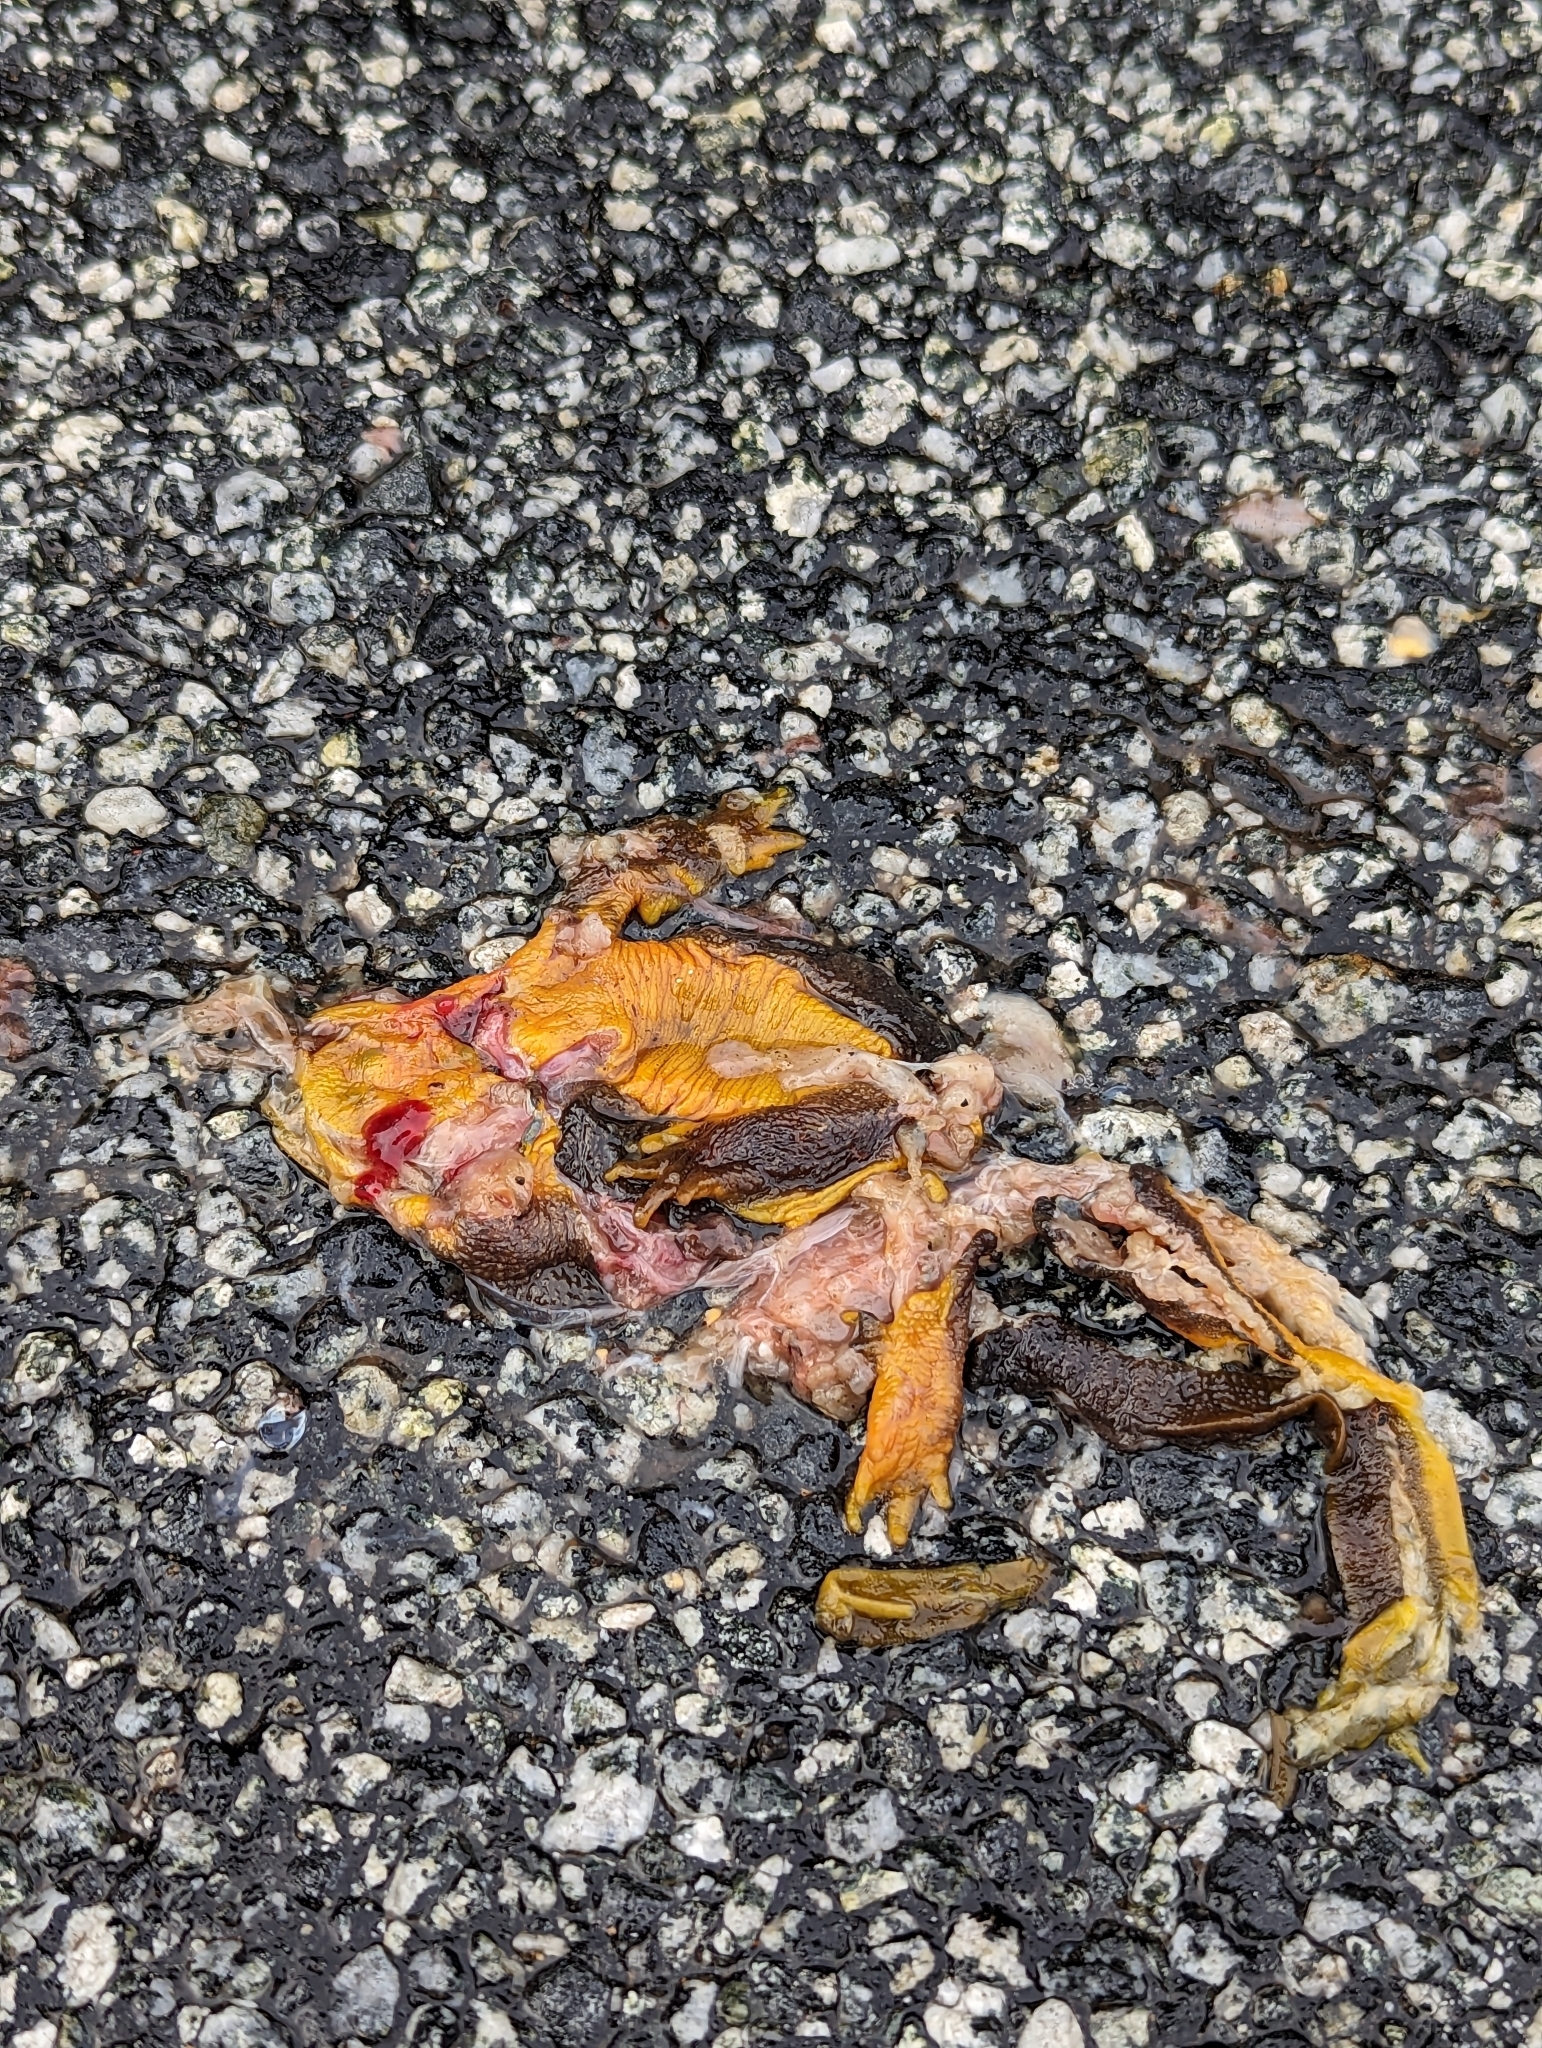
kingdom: Animalia
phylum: Chordata
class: Amphibia
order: Caudata
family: Salamandridae
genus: Taricha
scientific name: Taricha
